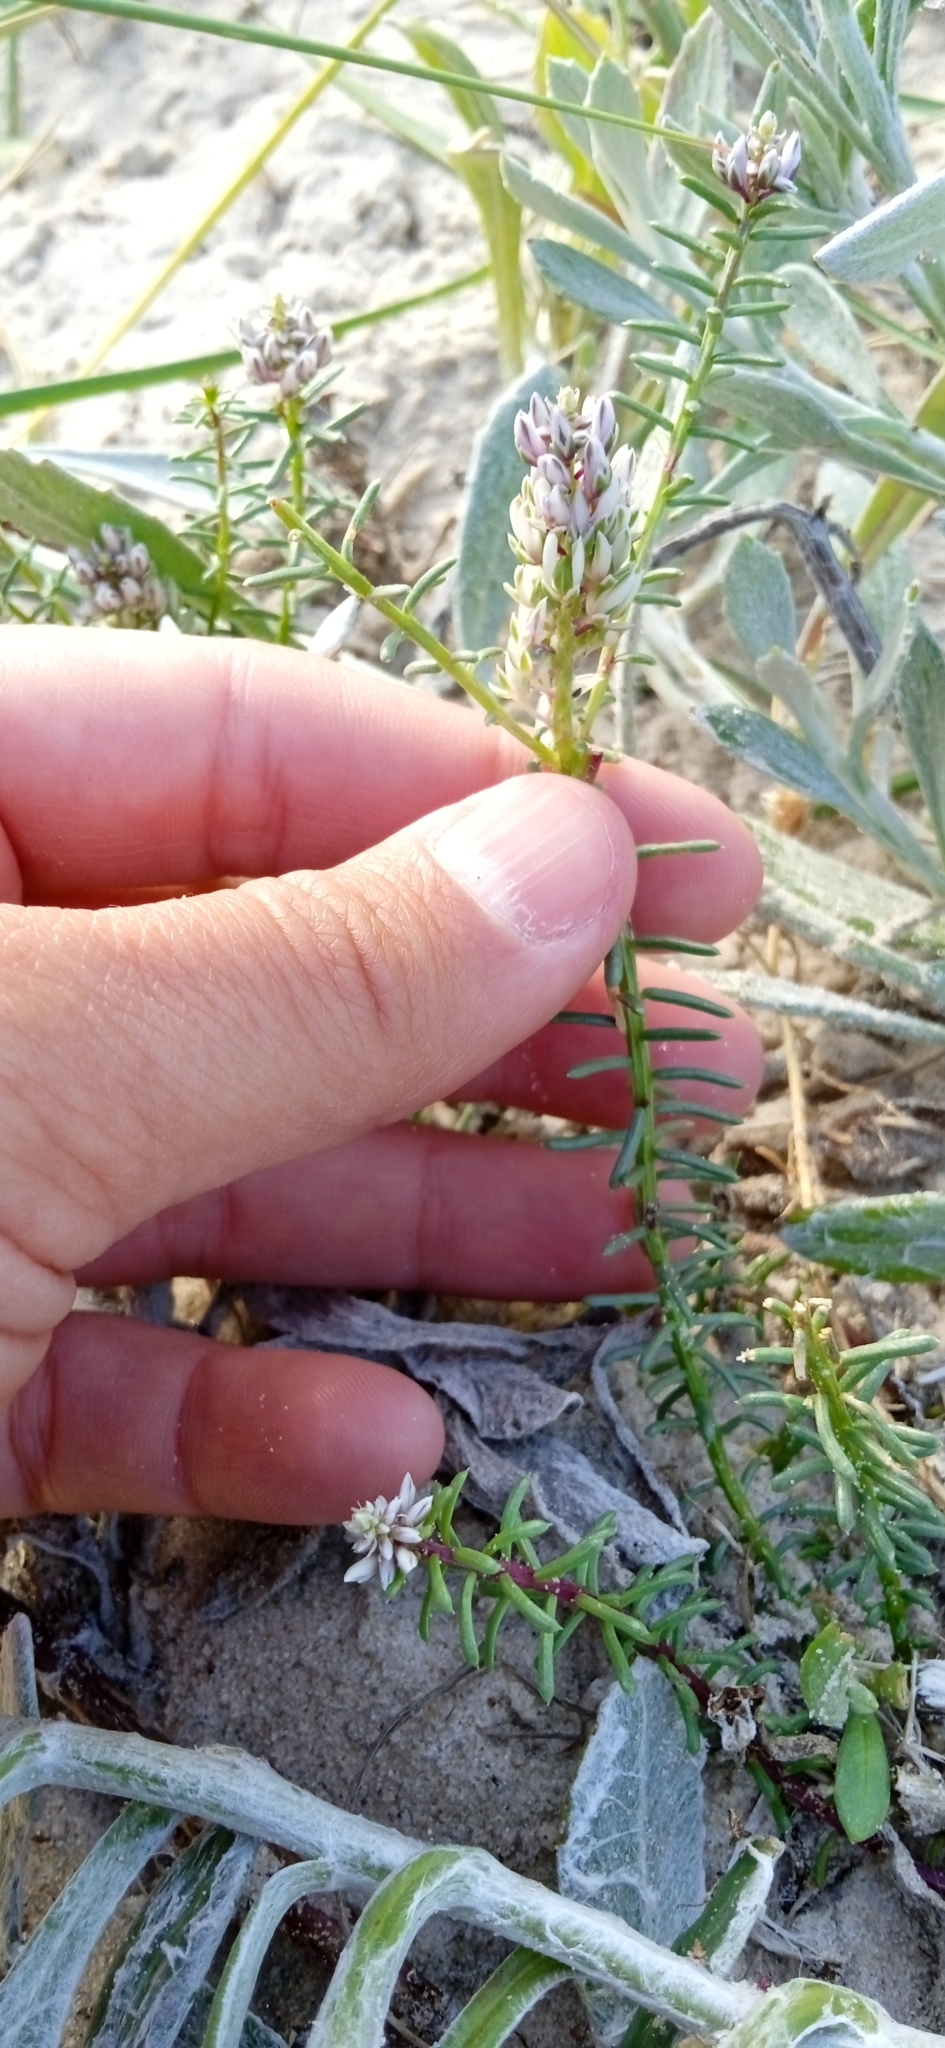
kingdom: Plantae
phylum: Tracheophyta
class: Magnoliopsida
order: Fabales
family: Polygalaceae
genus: Polygala
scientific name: Polygala cyparissias
